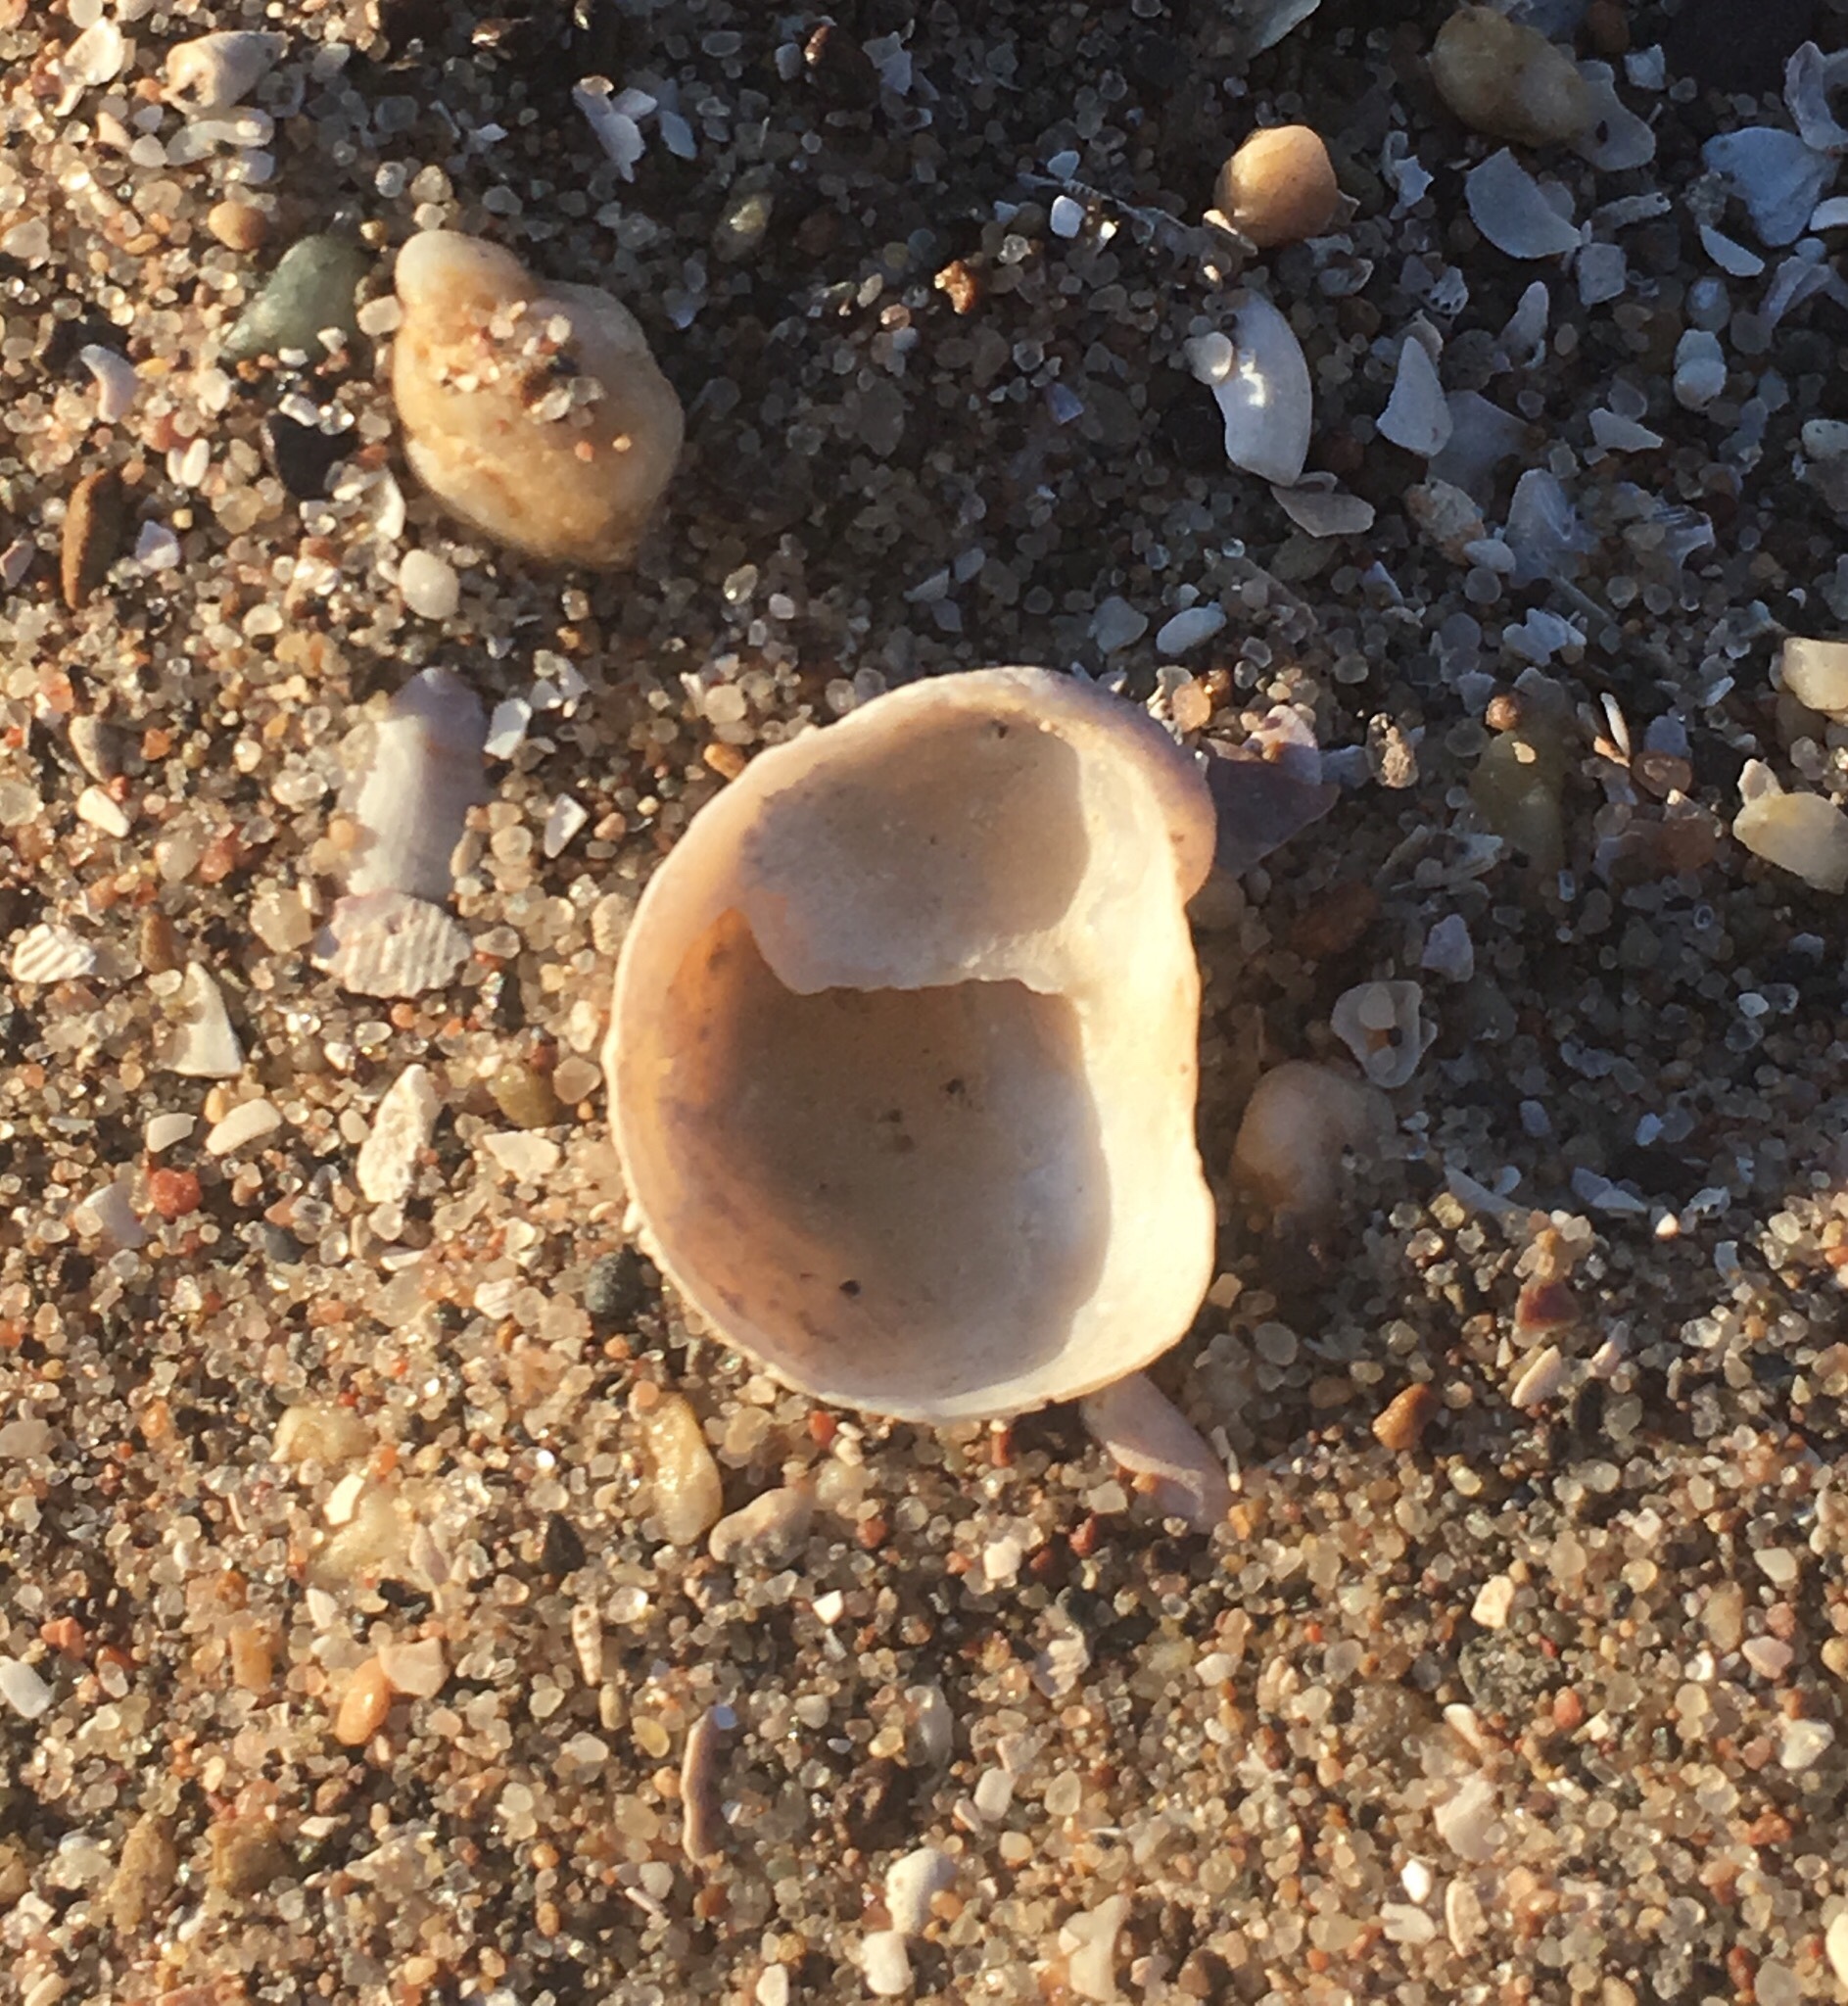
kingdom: Animalia
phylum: Mollusca
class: Gastropoda
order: Littorinimorpha
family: Calyptraeidae
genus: Bostrycapulus
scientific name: Bostrycapulus odites
